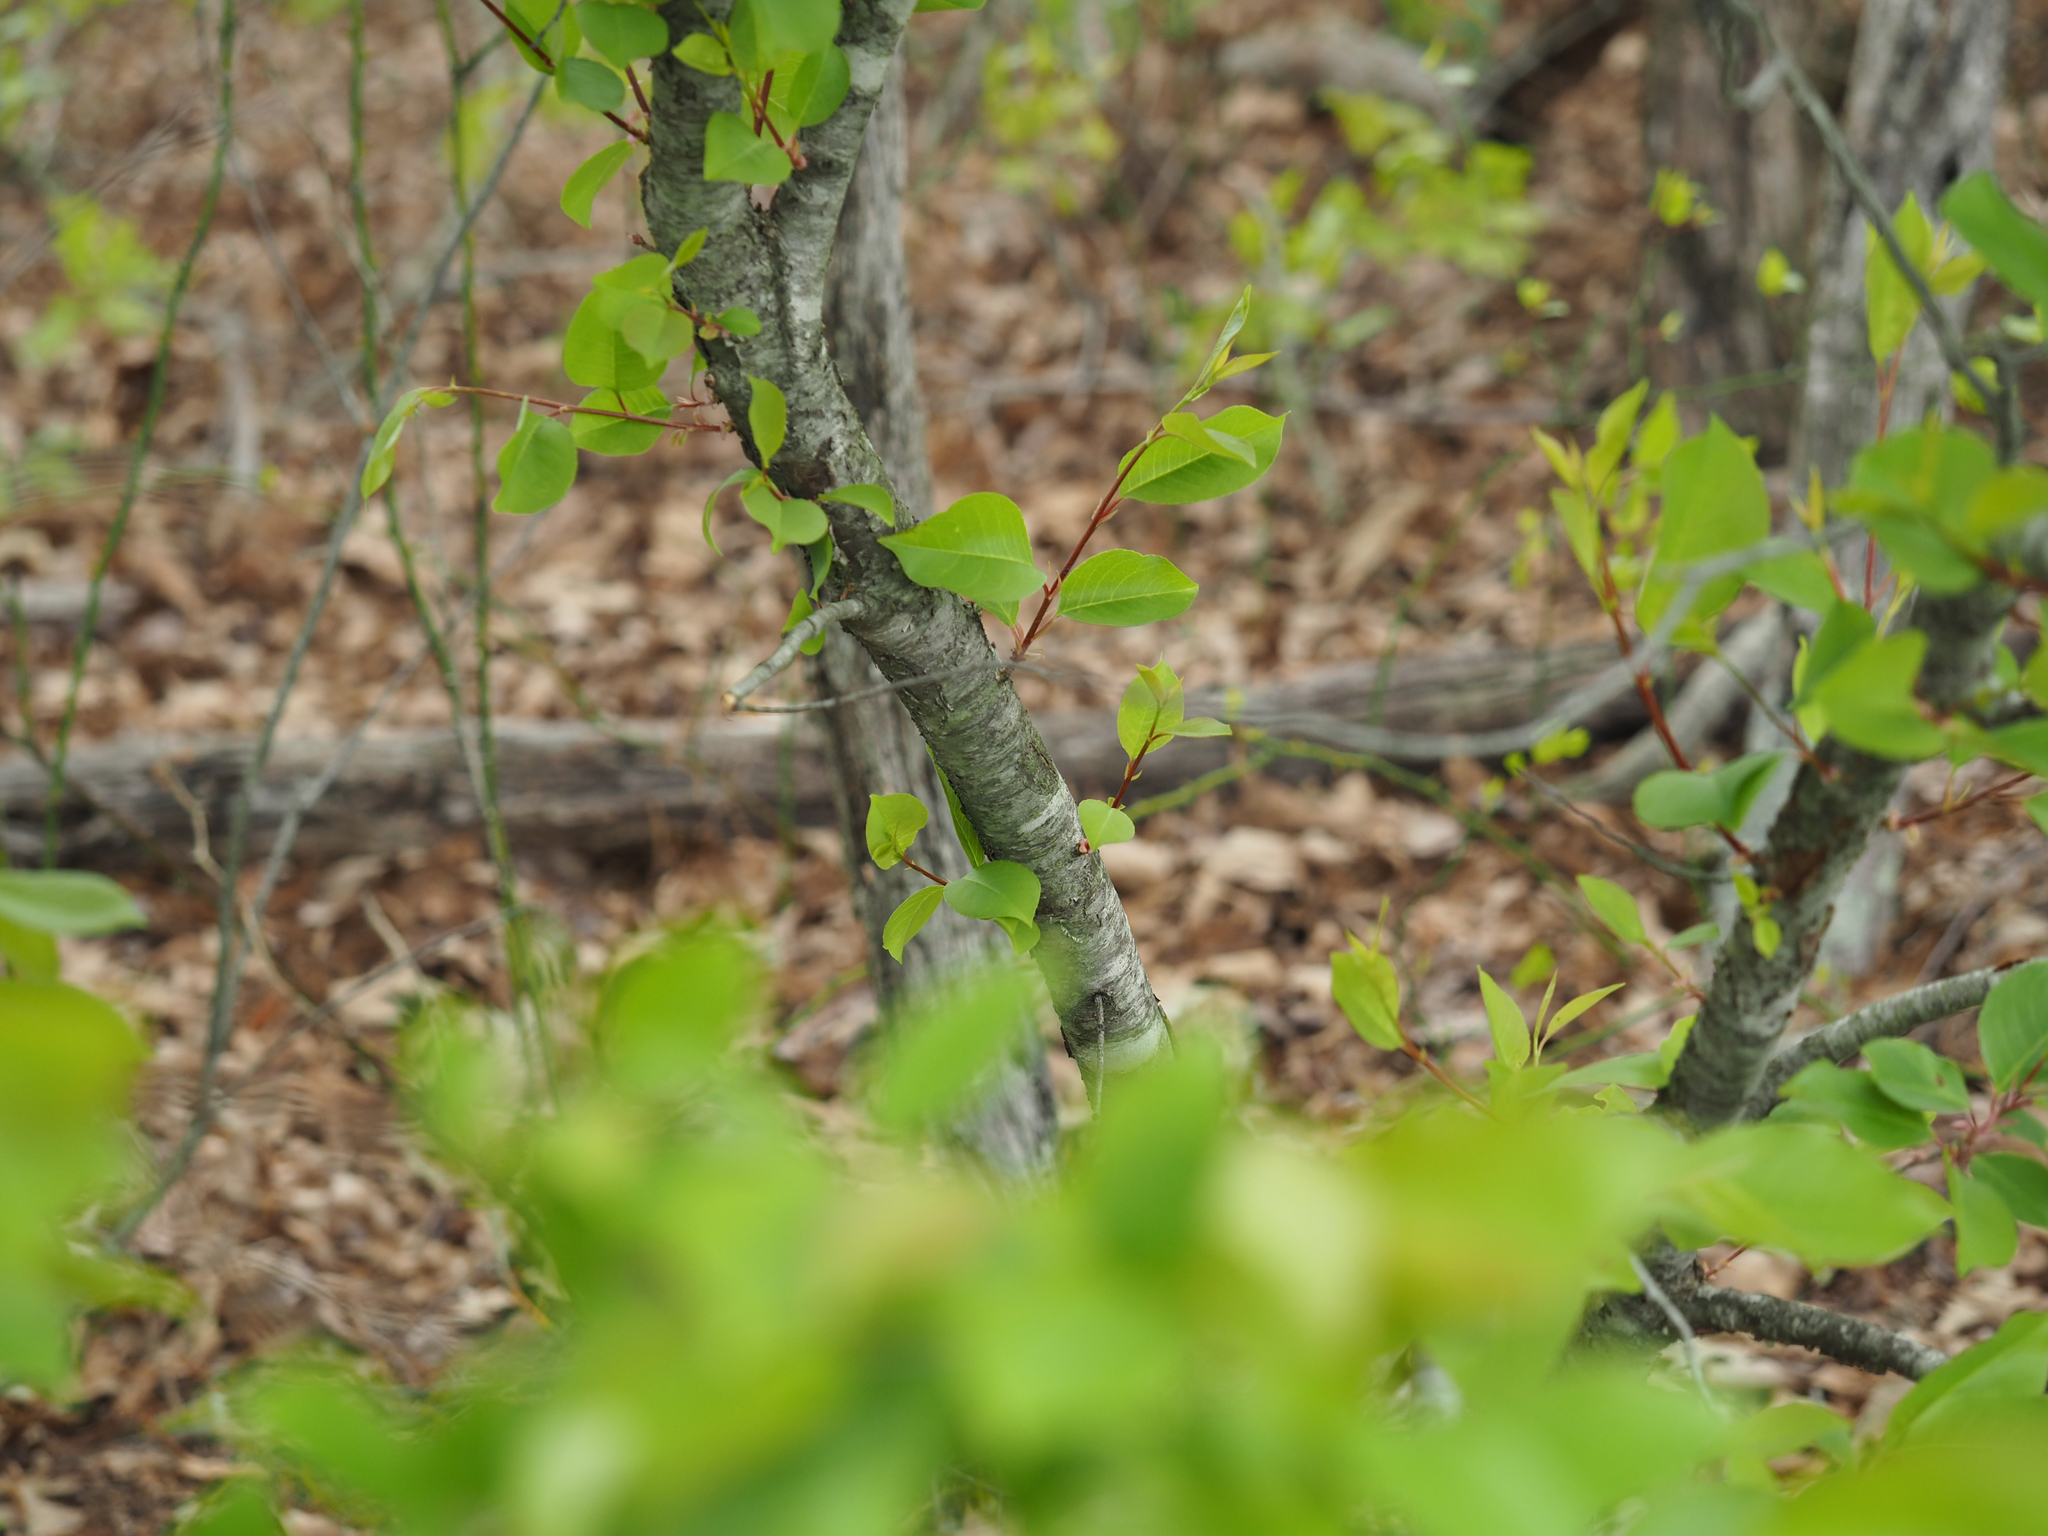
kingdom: Plantae
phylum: Tracheophyta
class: Magnoliopsida
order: Rosales
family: Rosaceae
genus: Prunus
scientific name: Prunus serotina
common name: Black cherry
